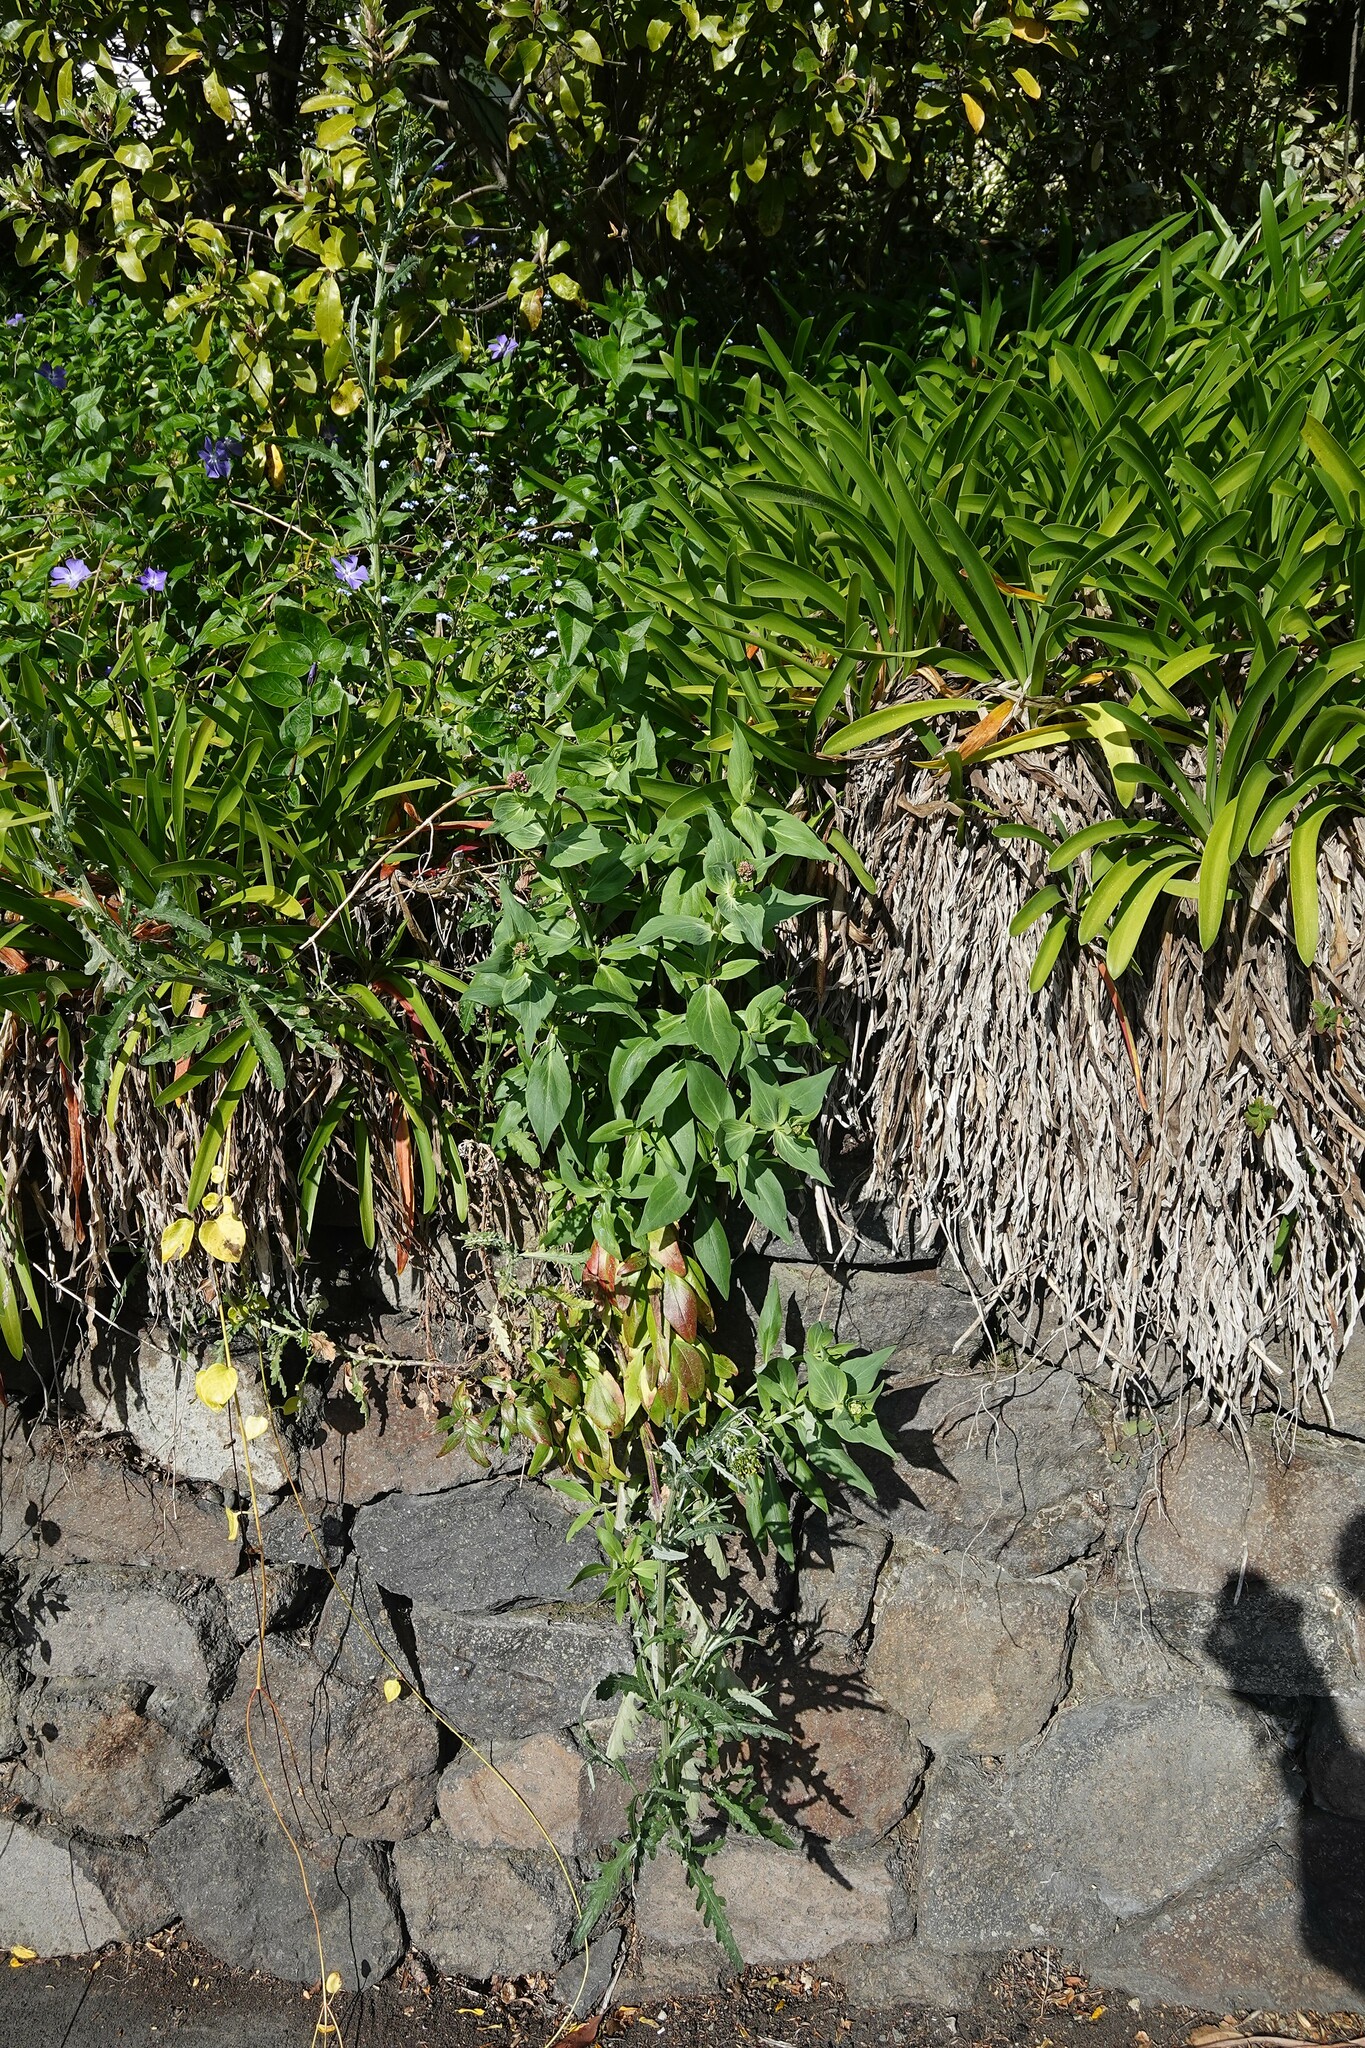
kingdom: Plantae
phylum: Tracheophyta
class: Magnoliopsida
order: Asterales
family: Asteraceae
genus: Senecio
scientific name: Senecio glomeratus
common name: Cutleaf burnweed
